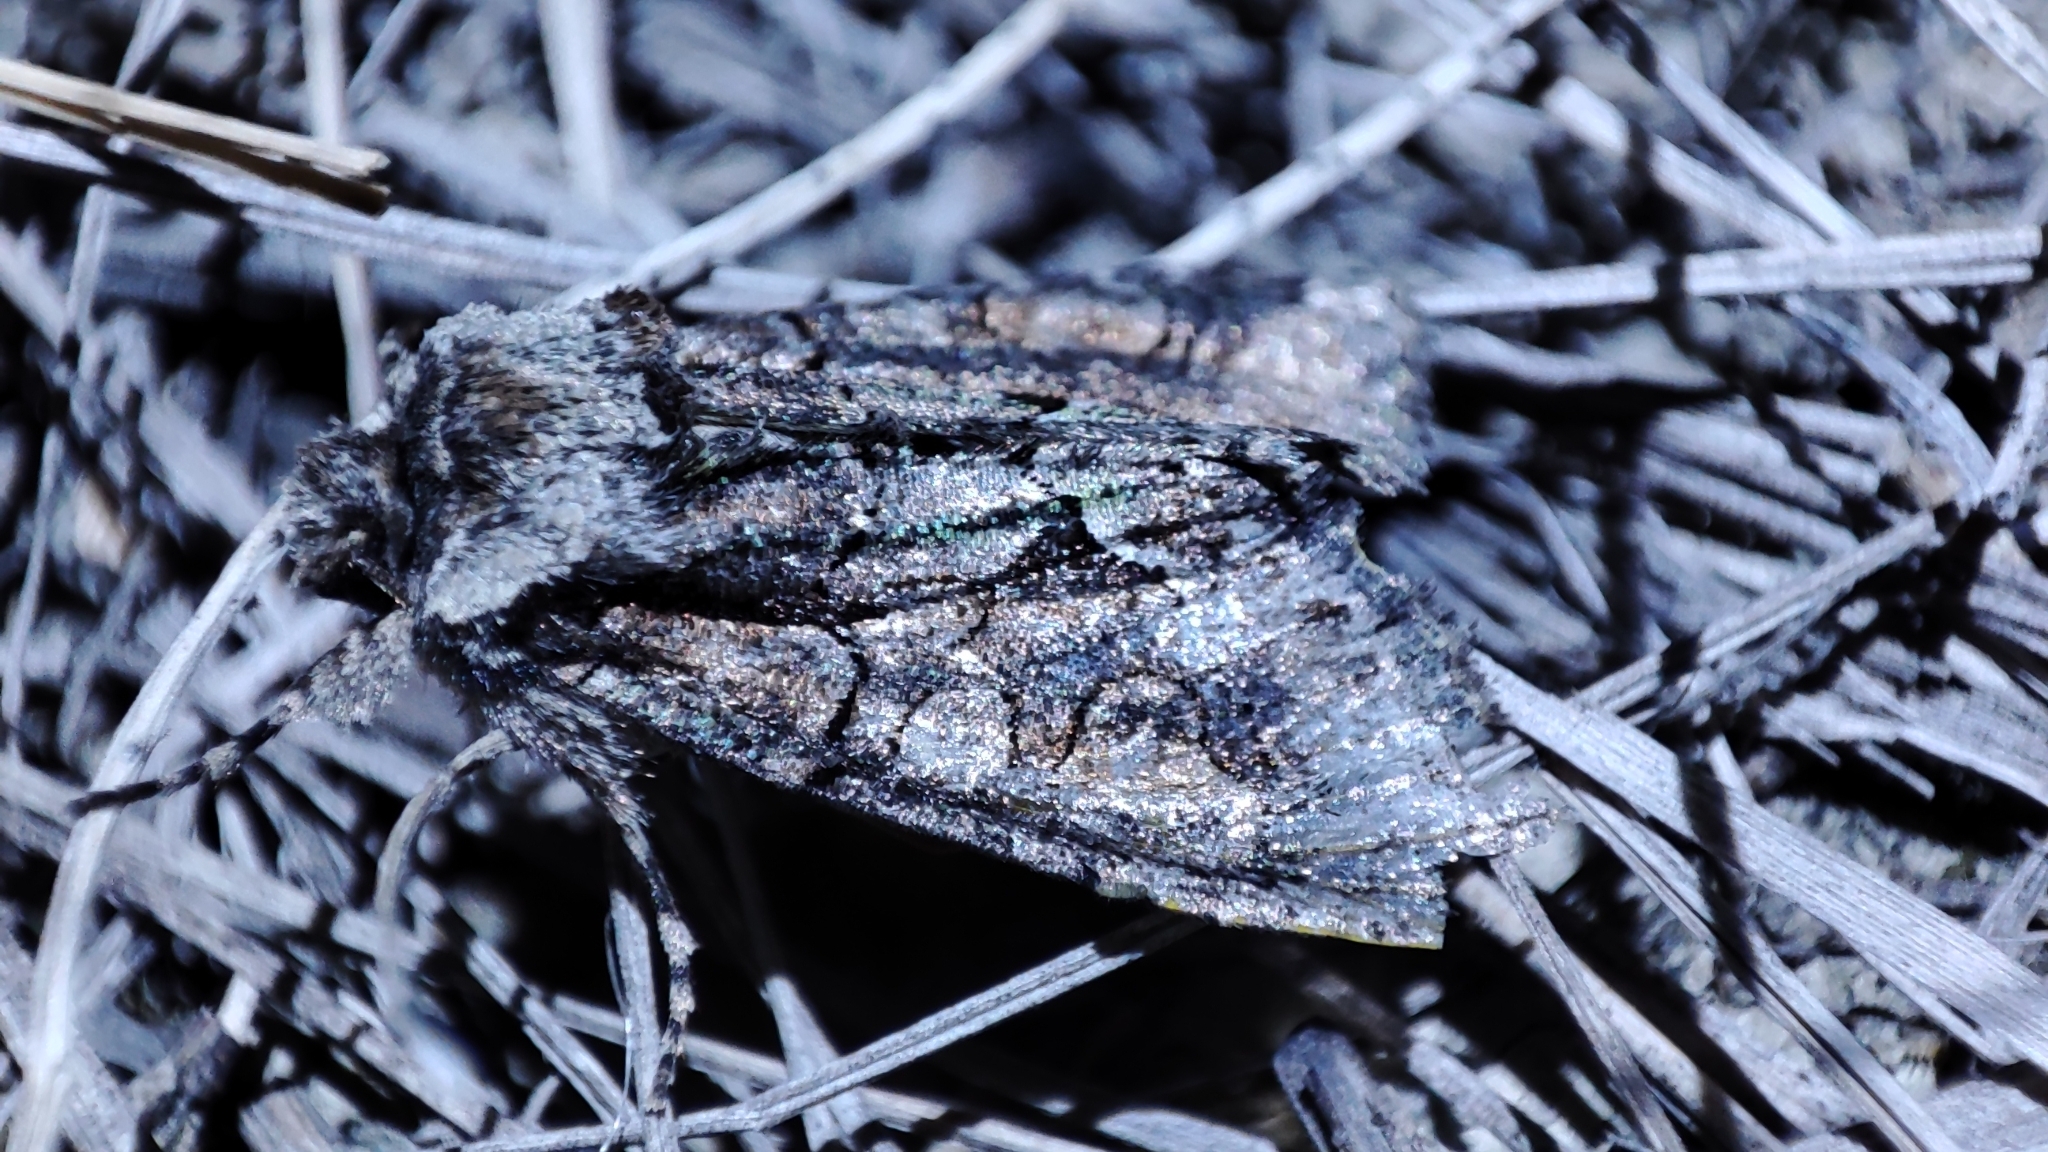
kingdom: Animalia
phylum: Arthropoda
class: Insecta
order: Lepidoptera
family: Noctuidae
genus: Allophyes
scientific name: Allophyes oxyacanthae
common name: Green-brindled crescent
